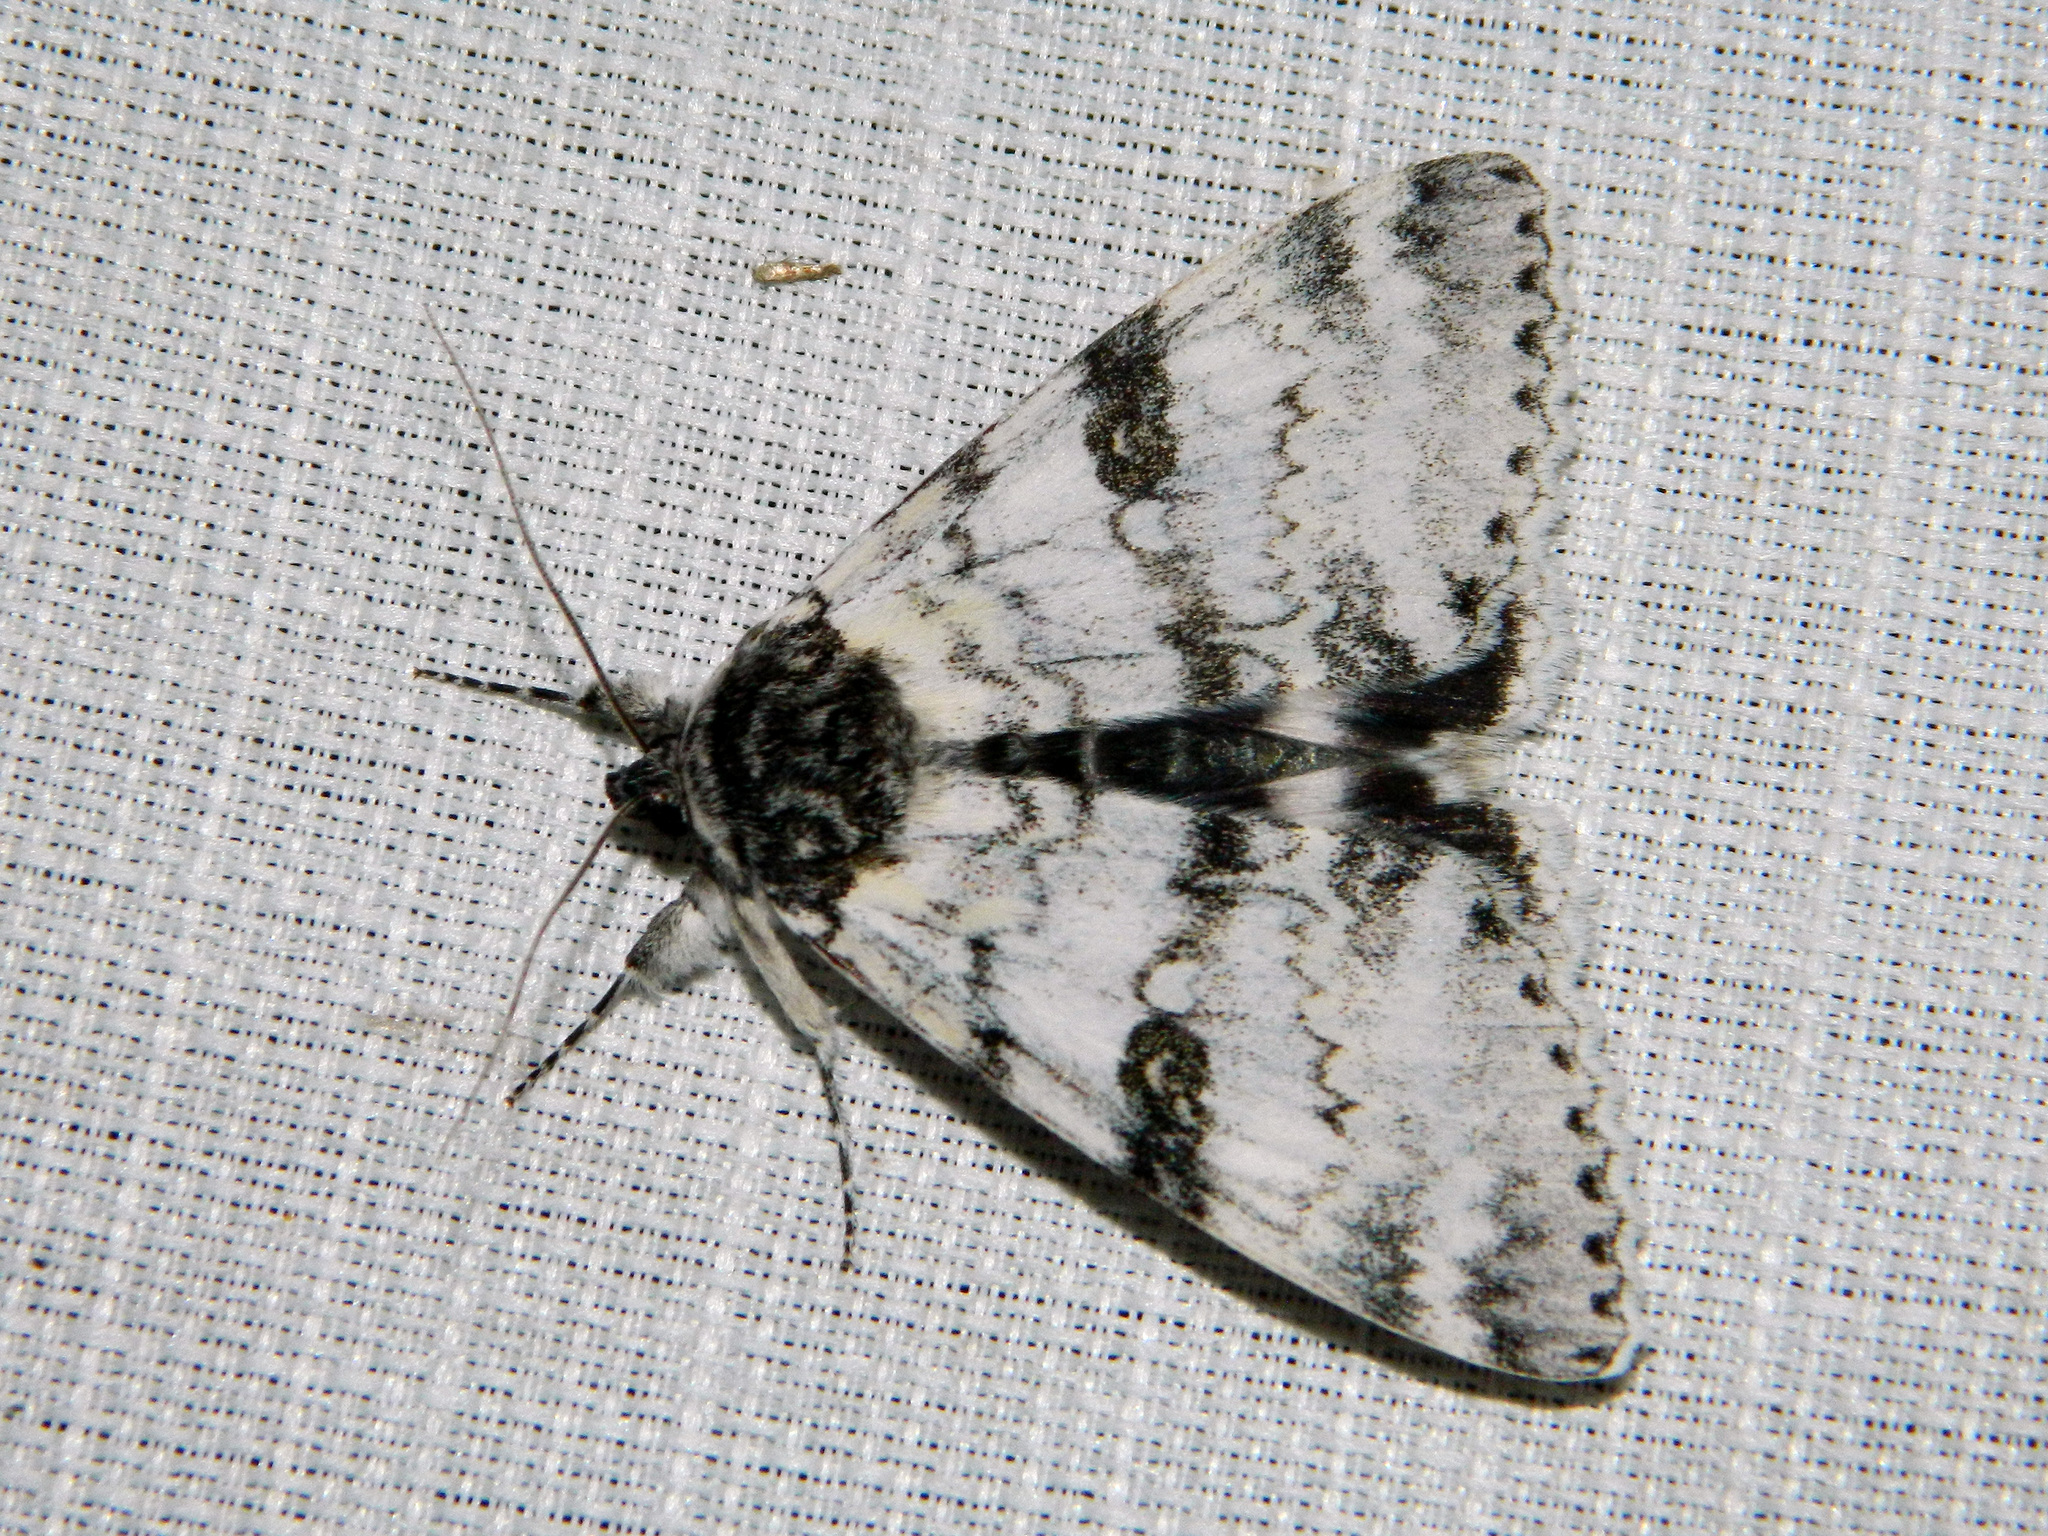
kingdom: Animalia
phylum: Arthropoda
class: Insecta
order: Lepidoptera
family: Erebidae
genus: Catocala
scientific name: Catocala relicta
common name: White underwing
